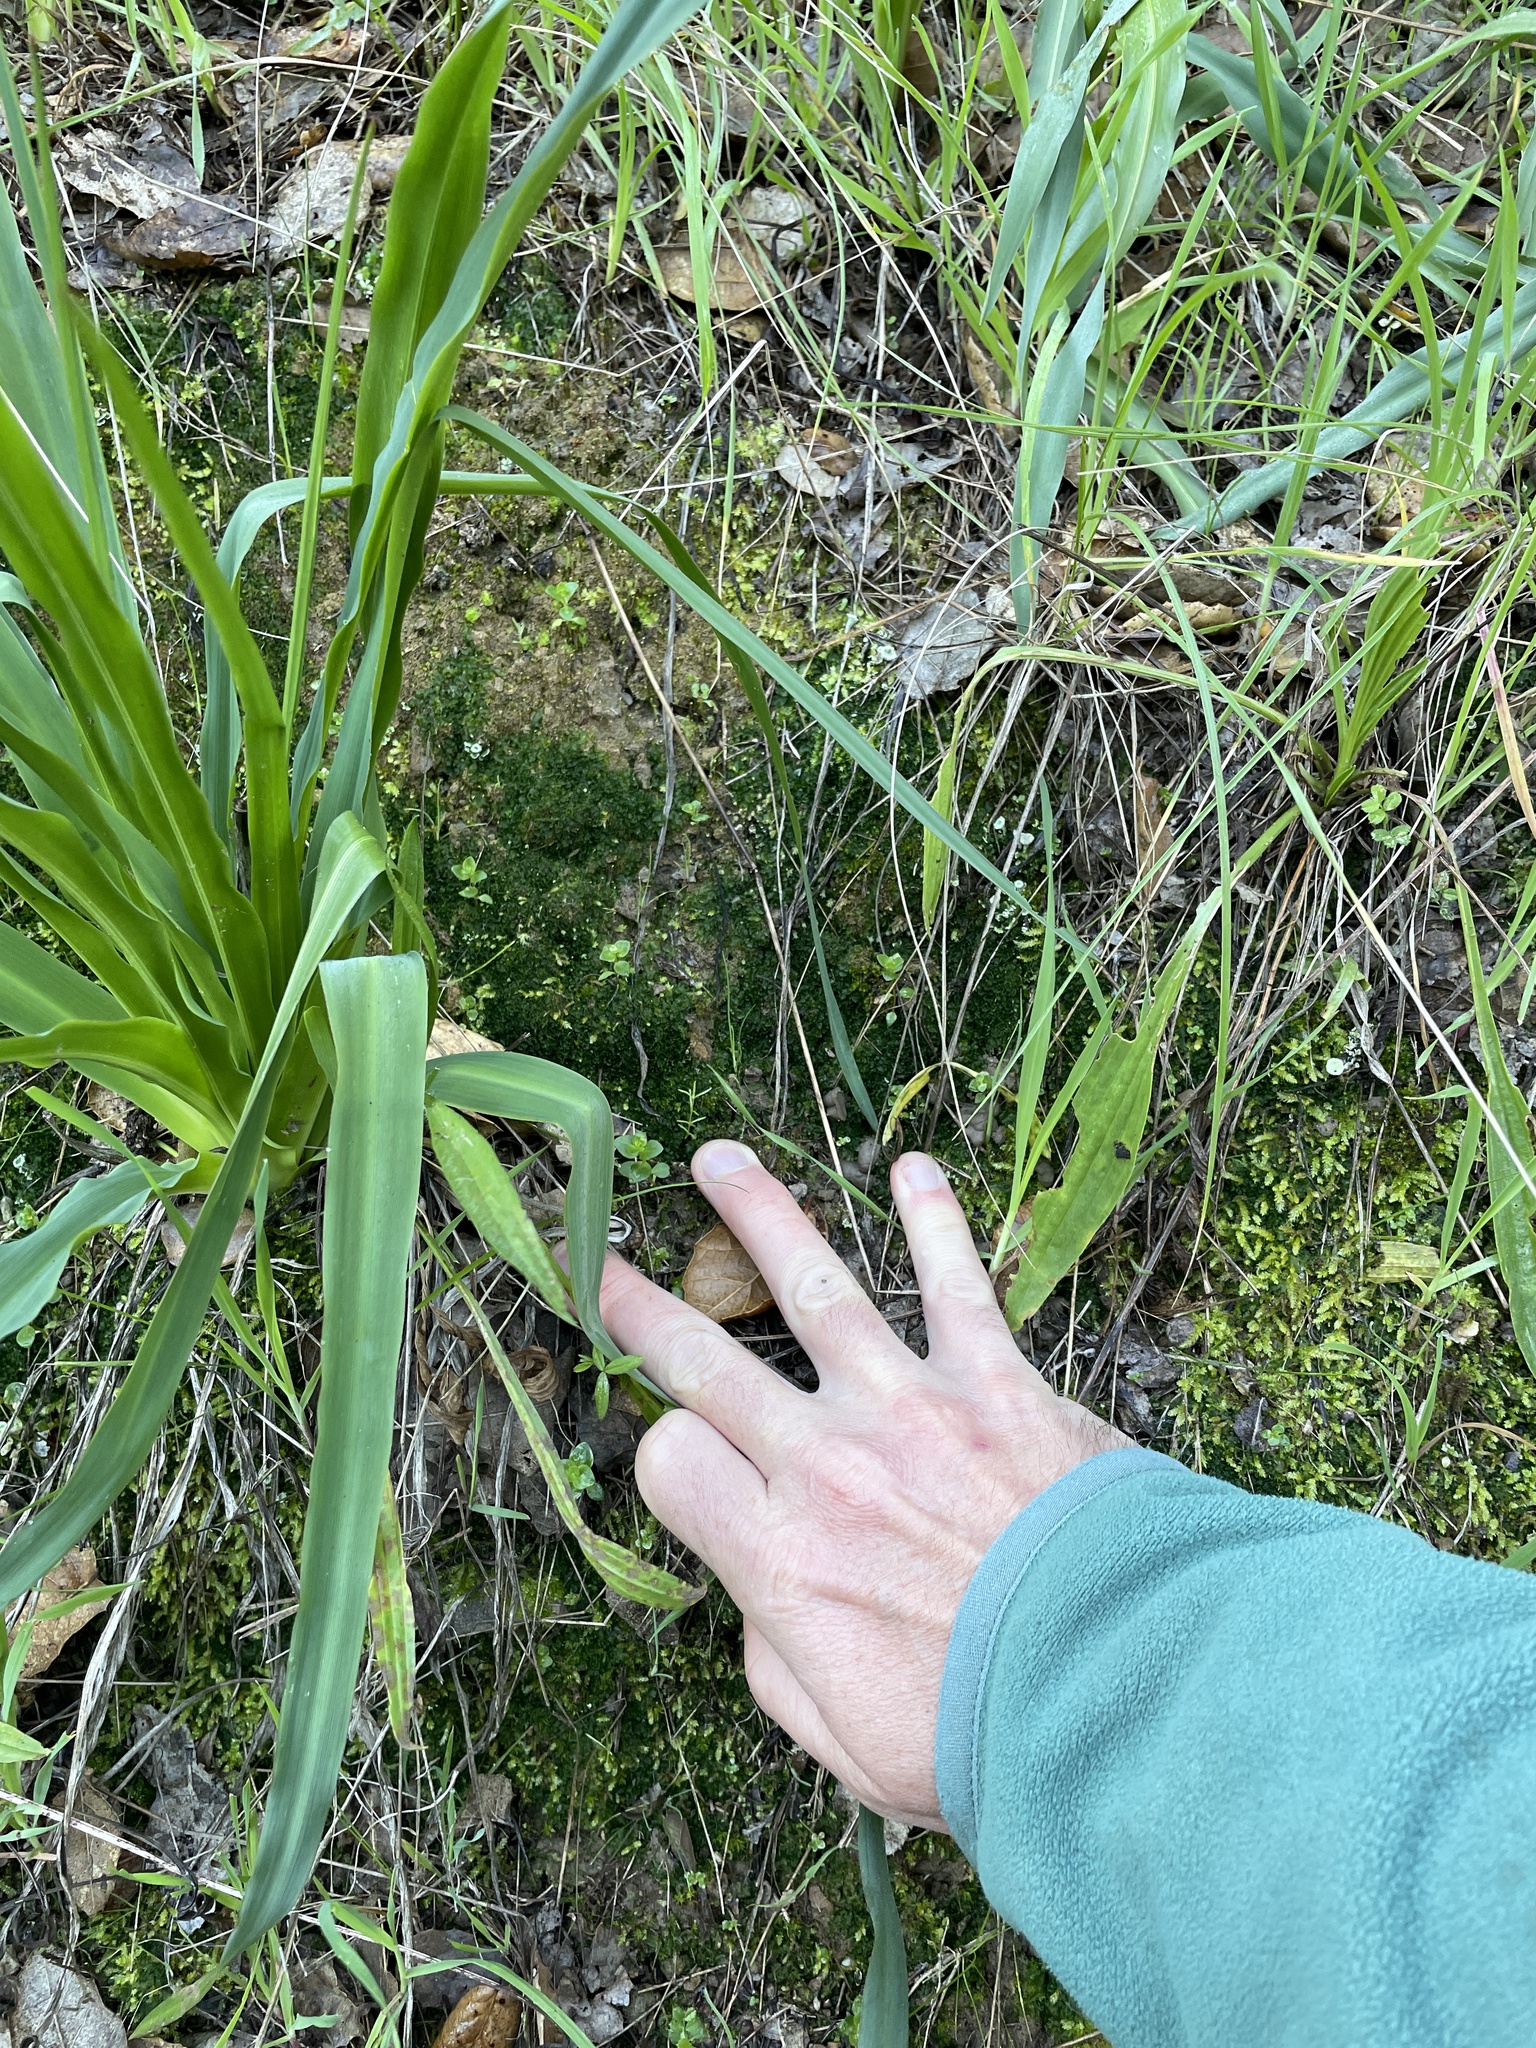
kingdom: Plantae
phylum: Anthocerotophyta
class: Anthocerotopsida
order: Phymatocerotales
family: Phymatocerotaceae
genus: Phymatoceros
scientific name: Phymatoceros bulbiculosus
